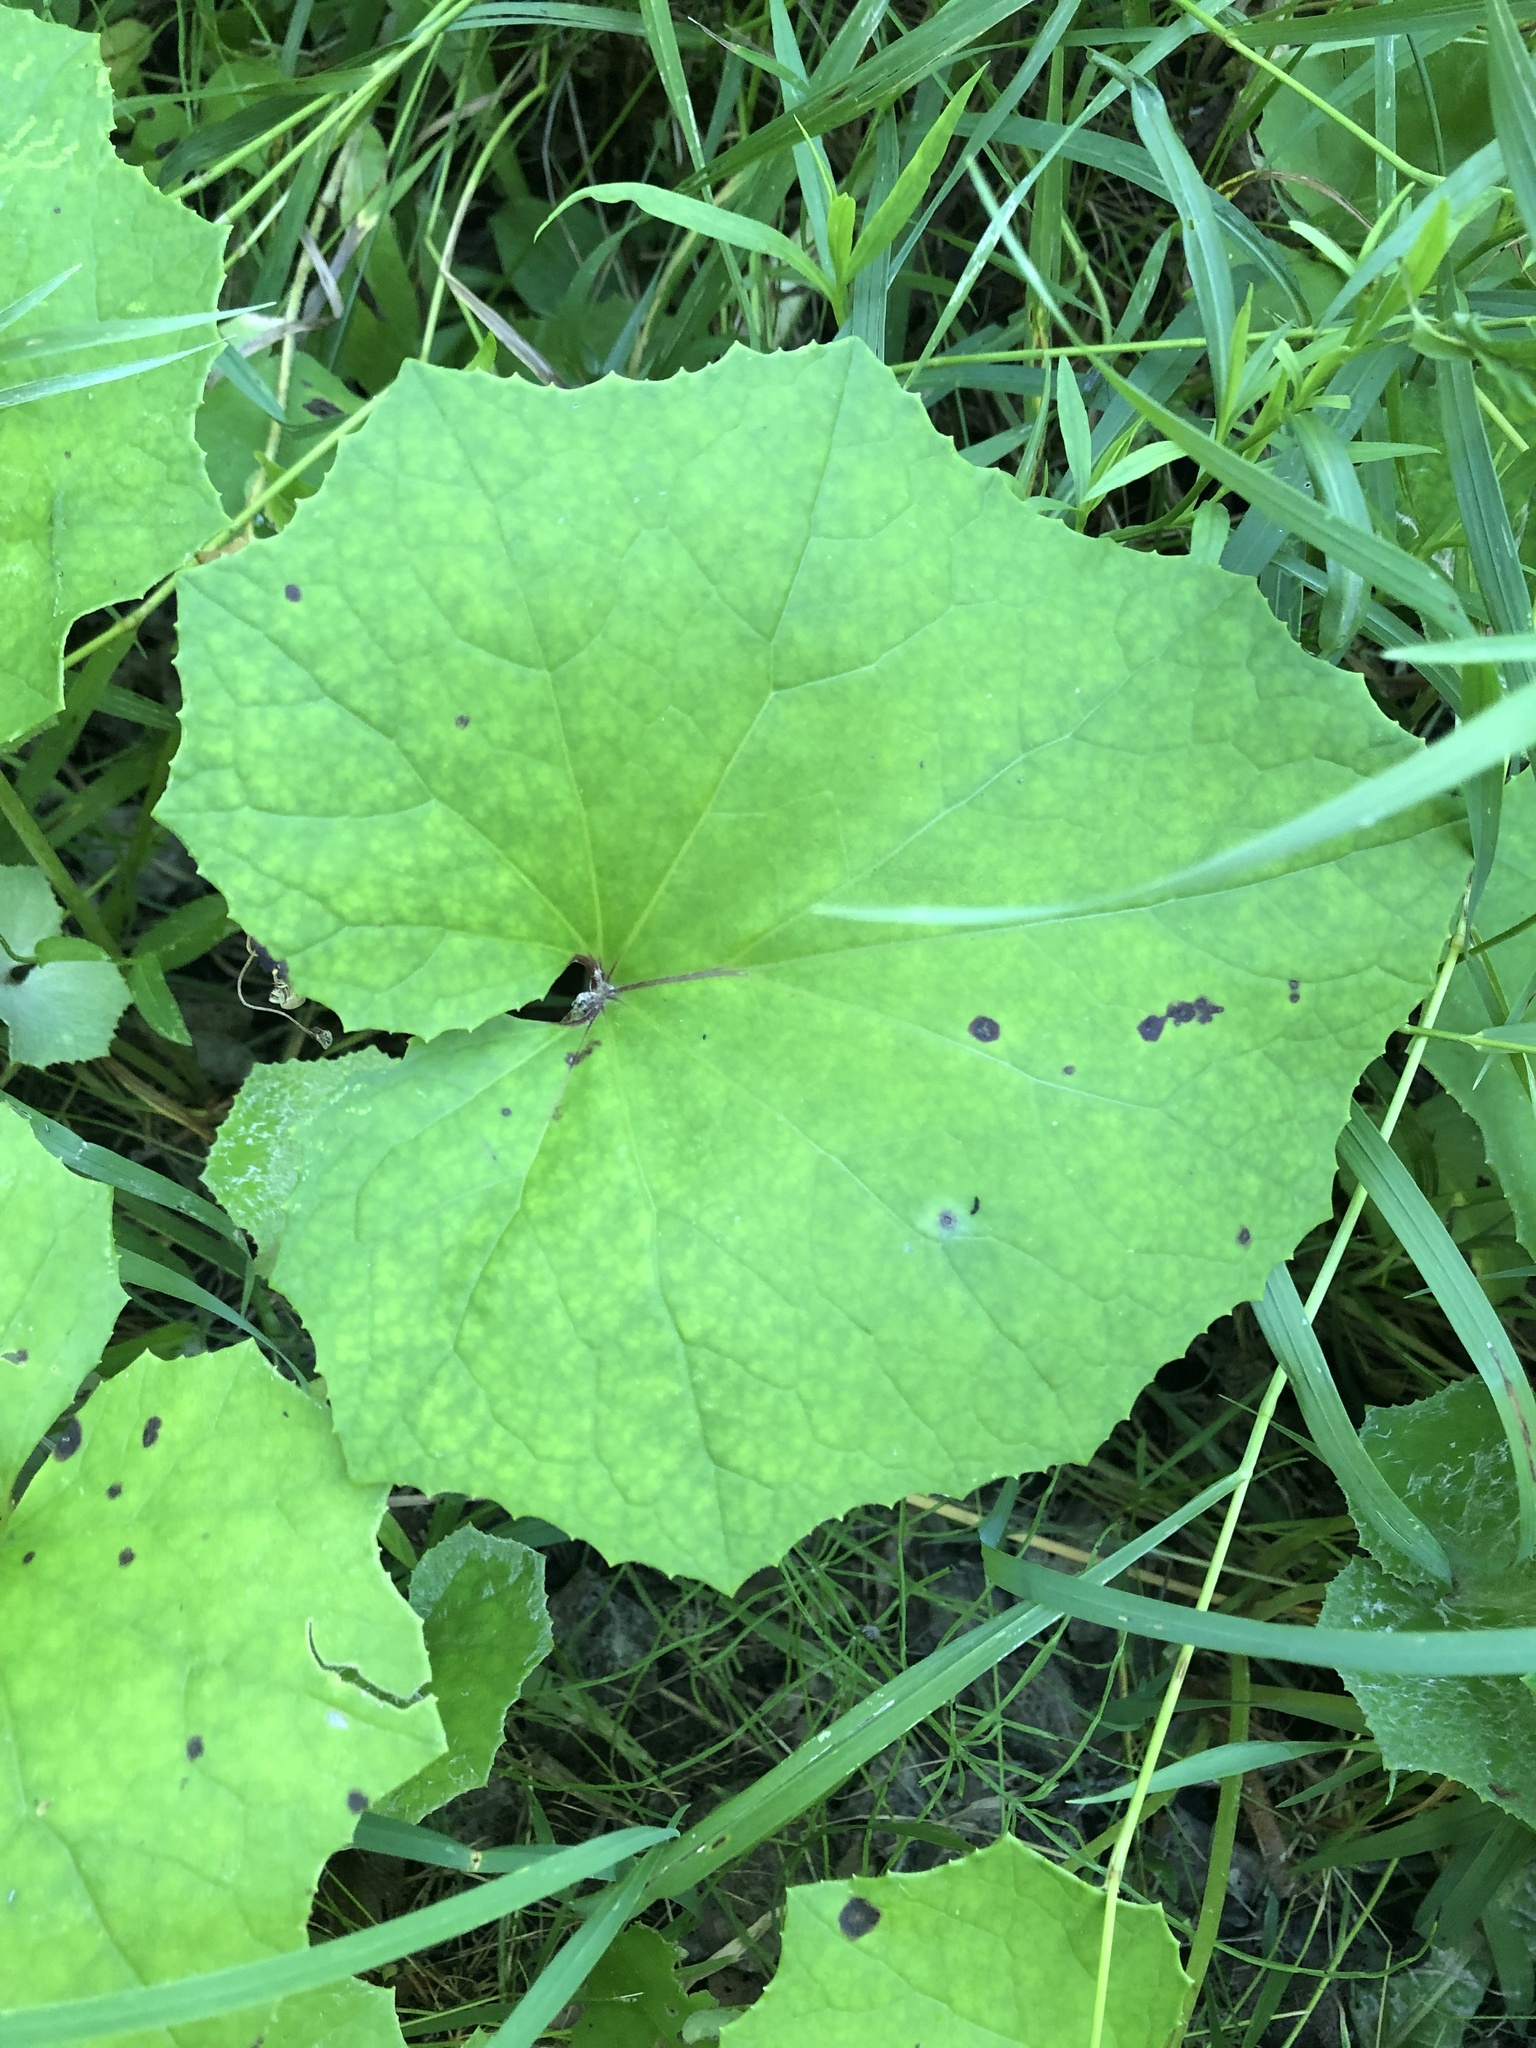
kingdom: Plantae
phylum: Tracheophyta
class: Magnoliopsida
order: Asterales
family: Asteraceae
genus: Tussilago
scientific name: Tussilago farfara
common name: Coltsfoot
